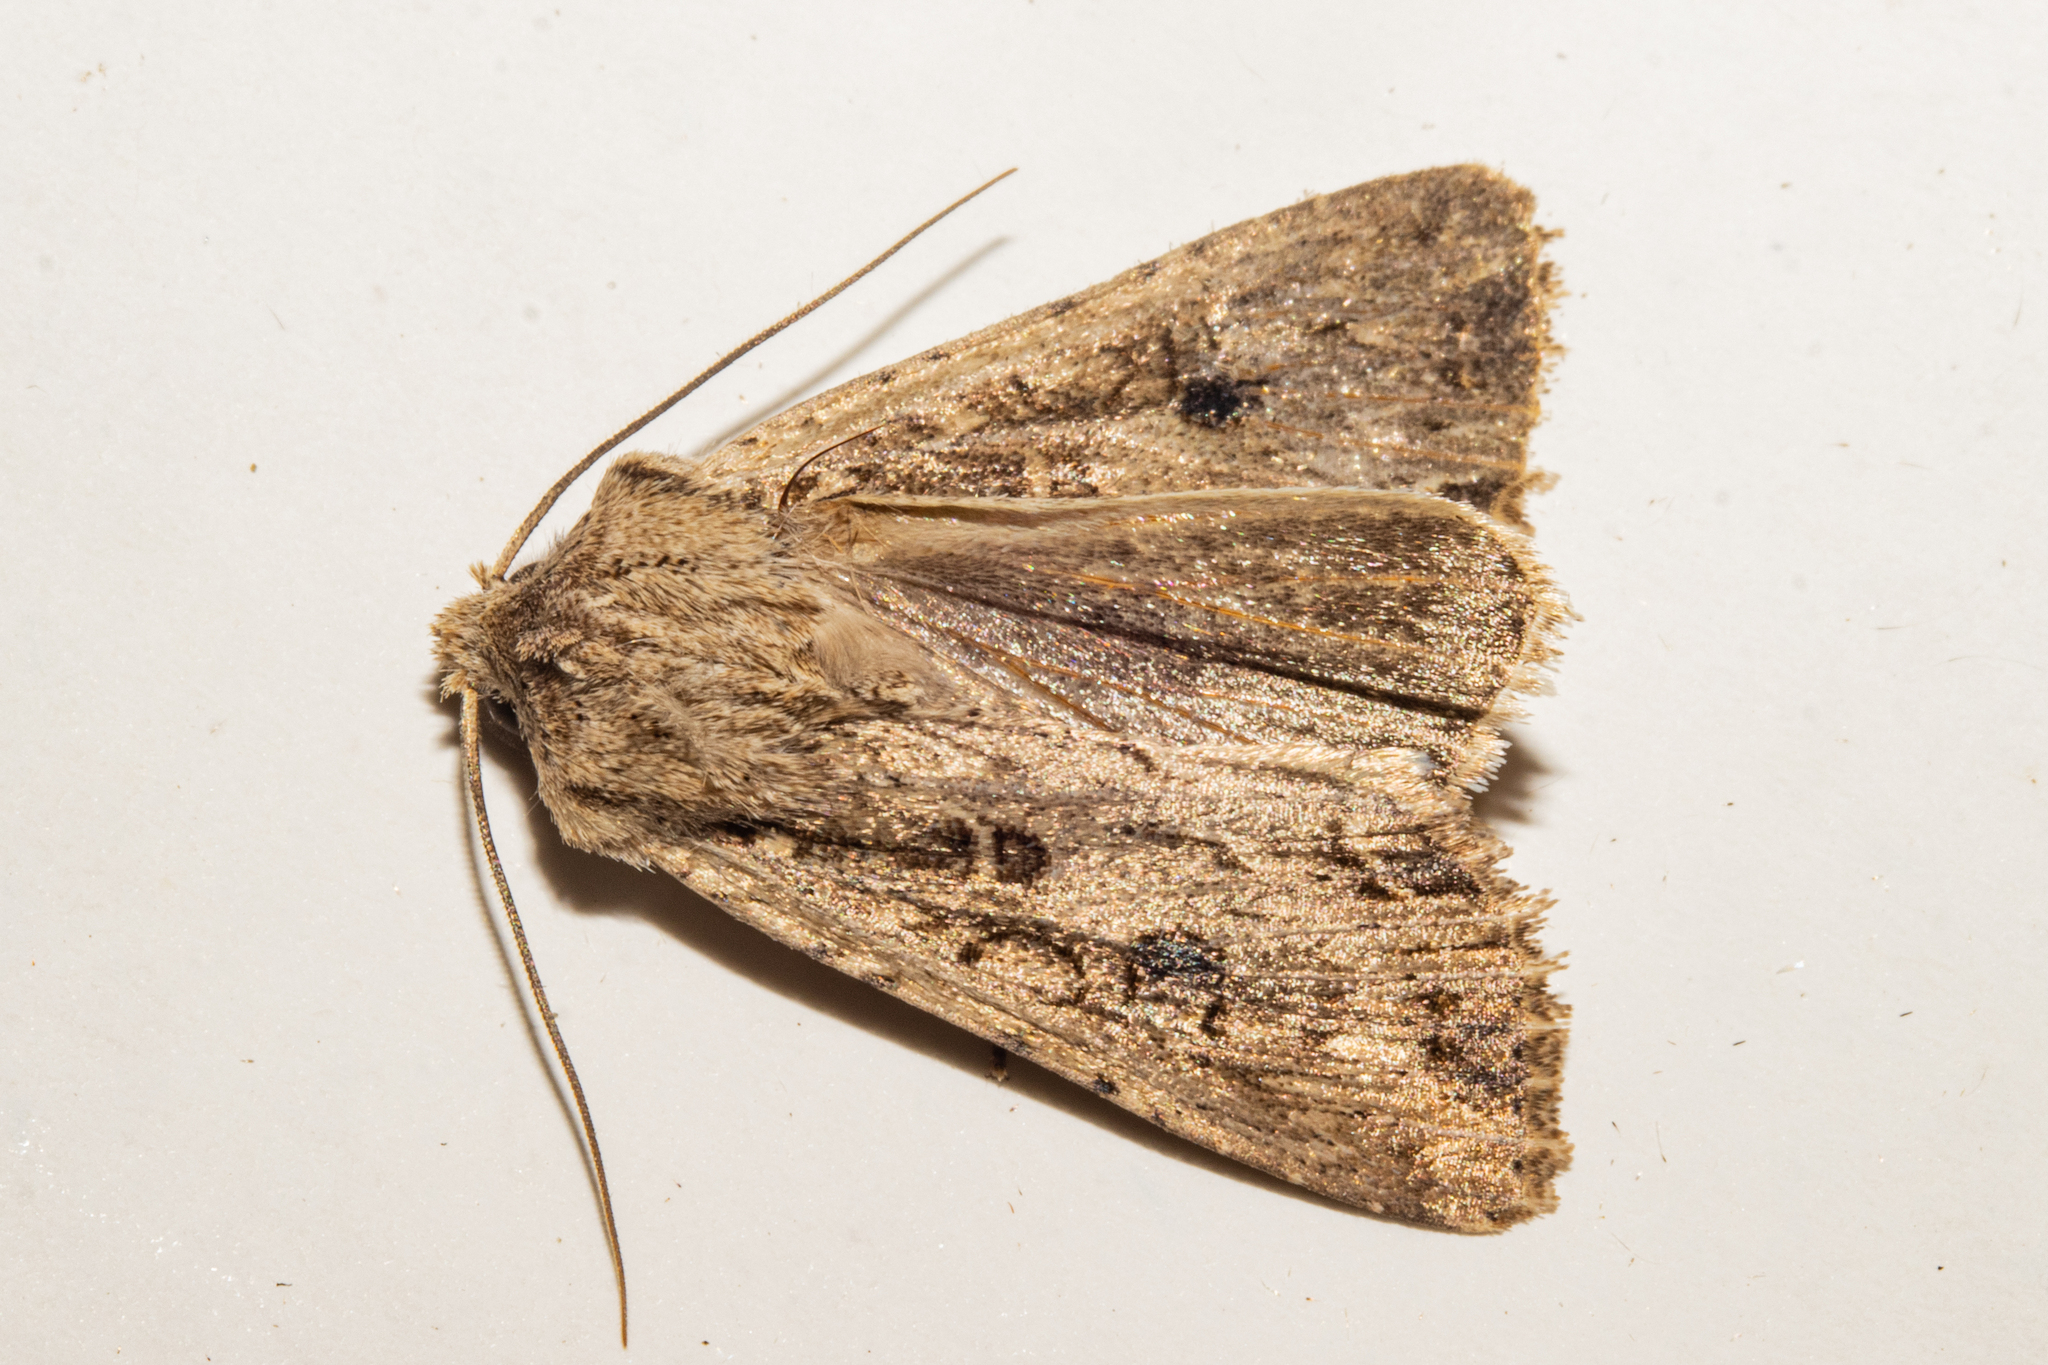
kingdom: Animalia
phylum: Arthropoda
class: Insecta
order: Lepidoptera
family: Noctuidae
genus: Ichneutica
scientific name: Ichneutica lignana
